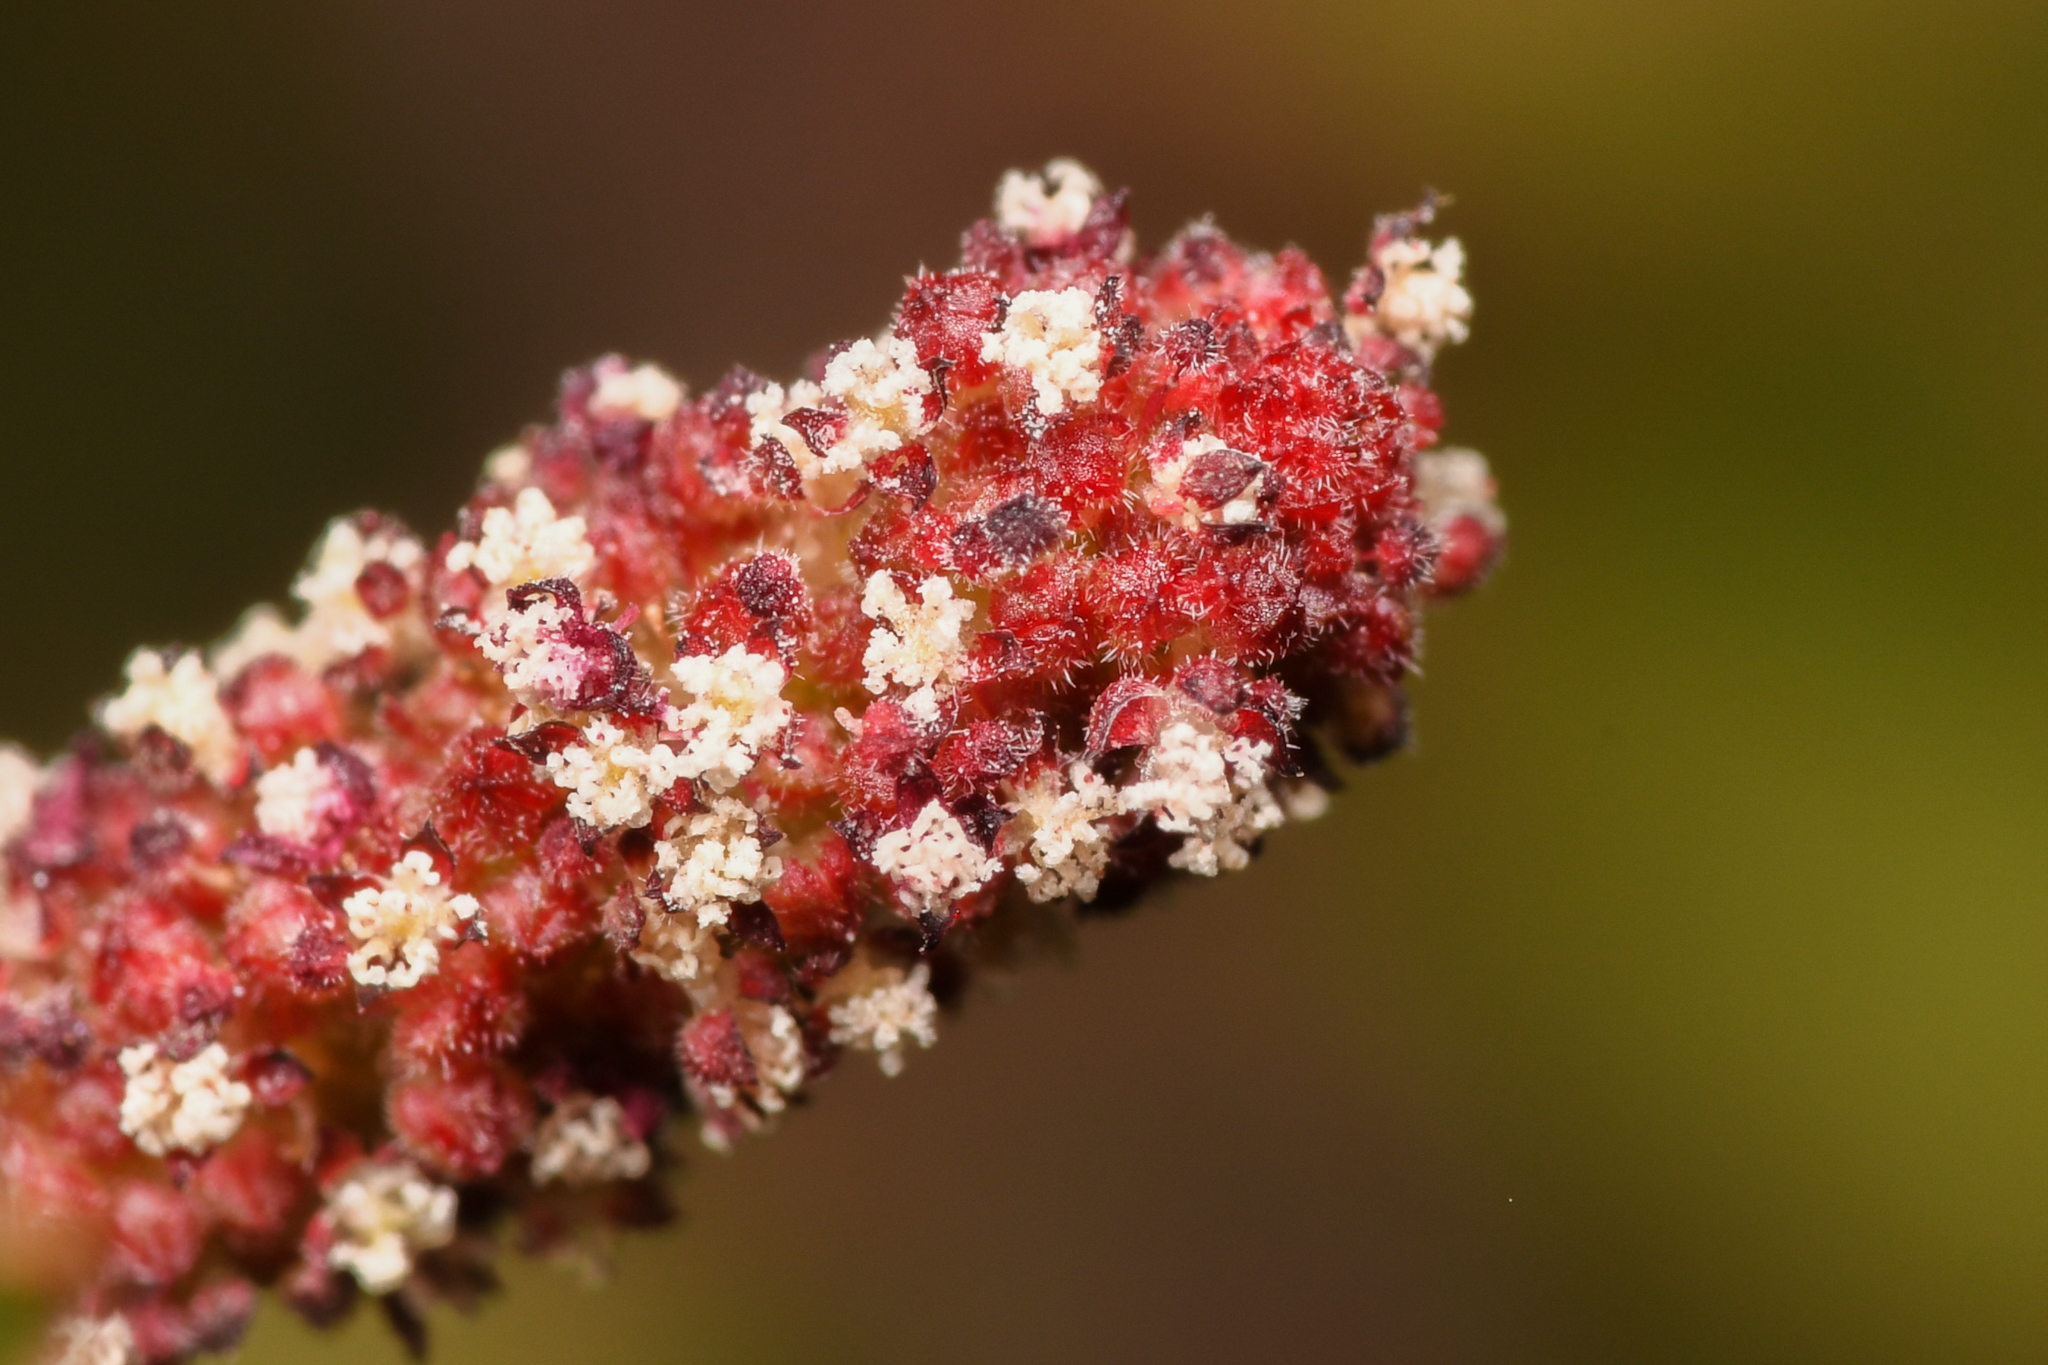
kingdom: Plantae
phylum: Tracheophyta
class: Magnoliopsida
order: Malpighiales
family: Euphorbiaceae
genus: Acalypha
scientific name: Acalypha californica
